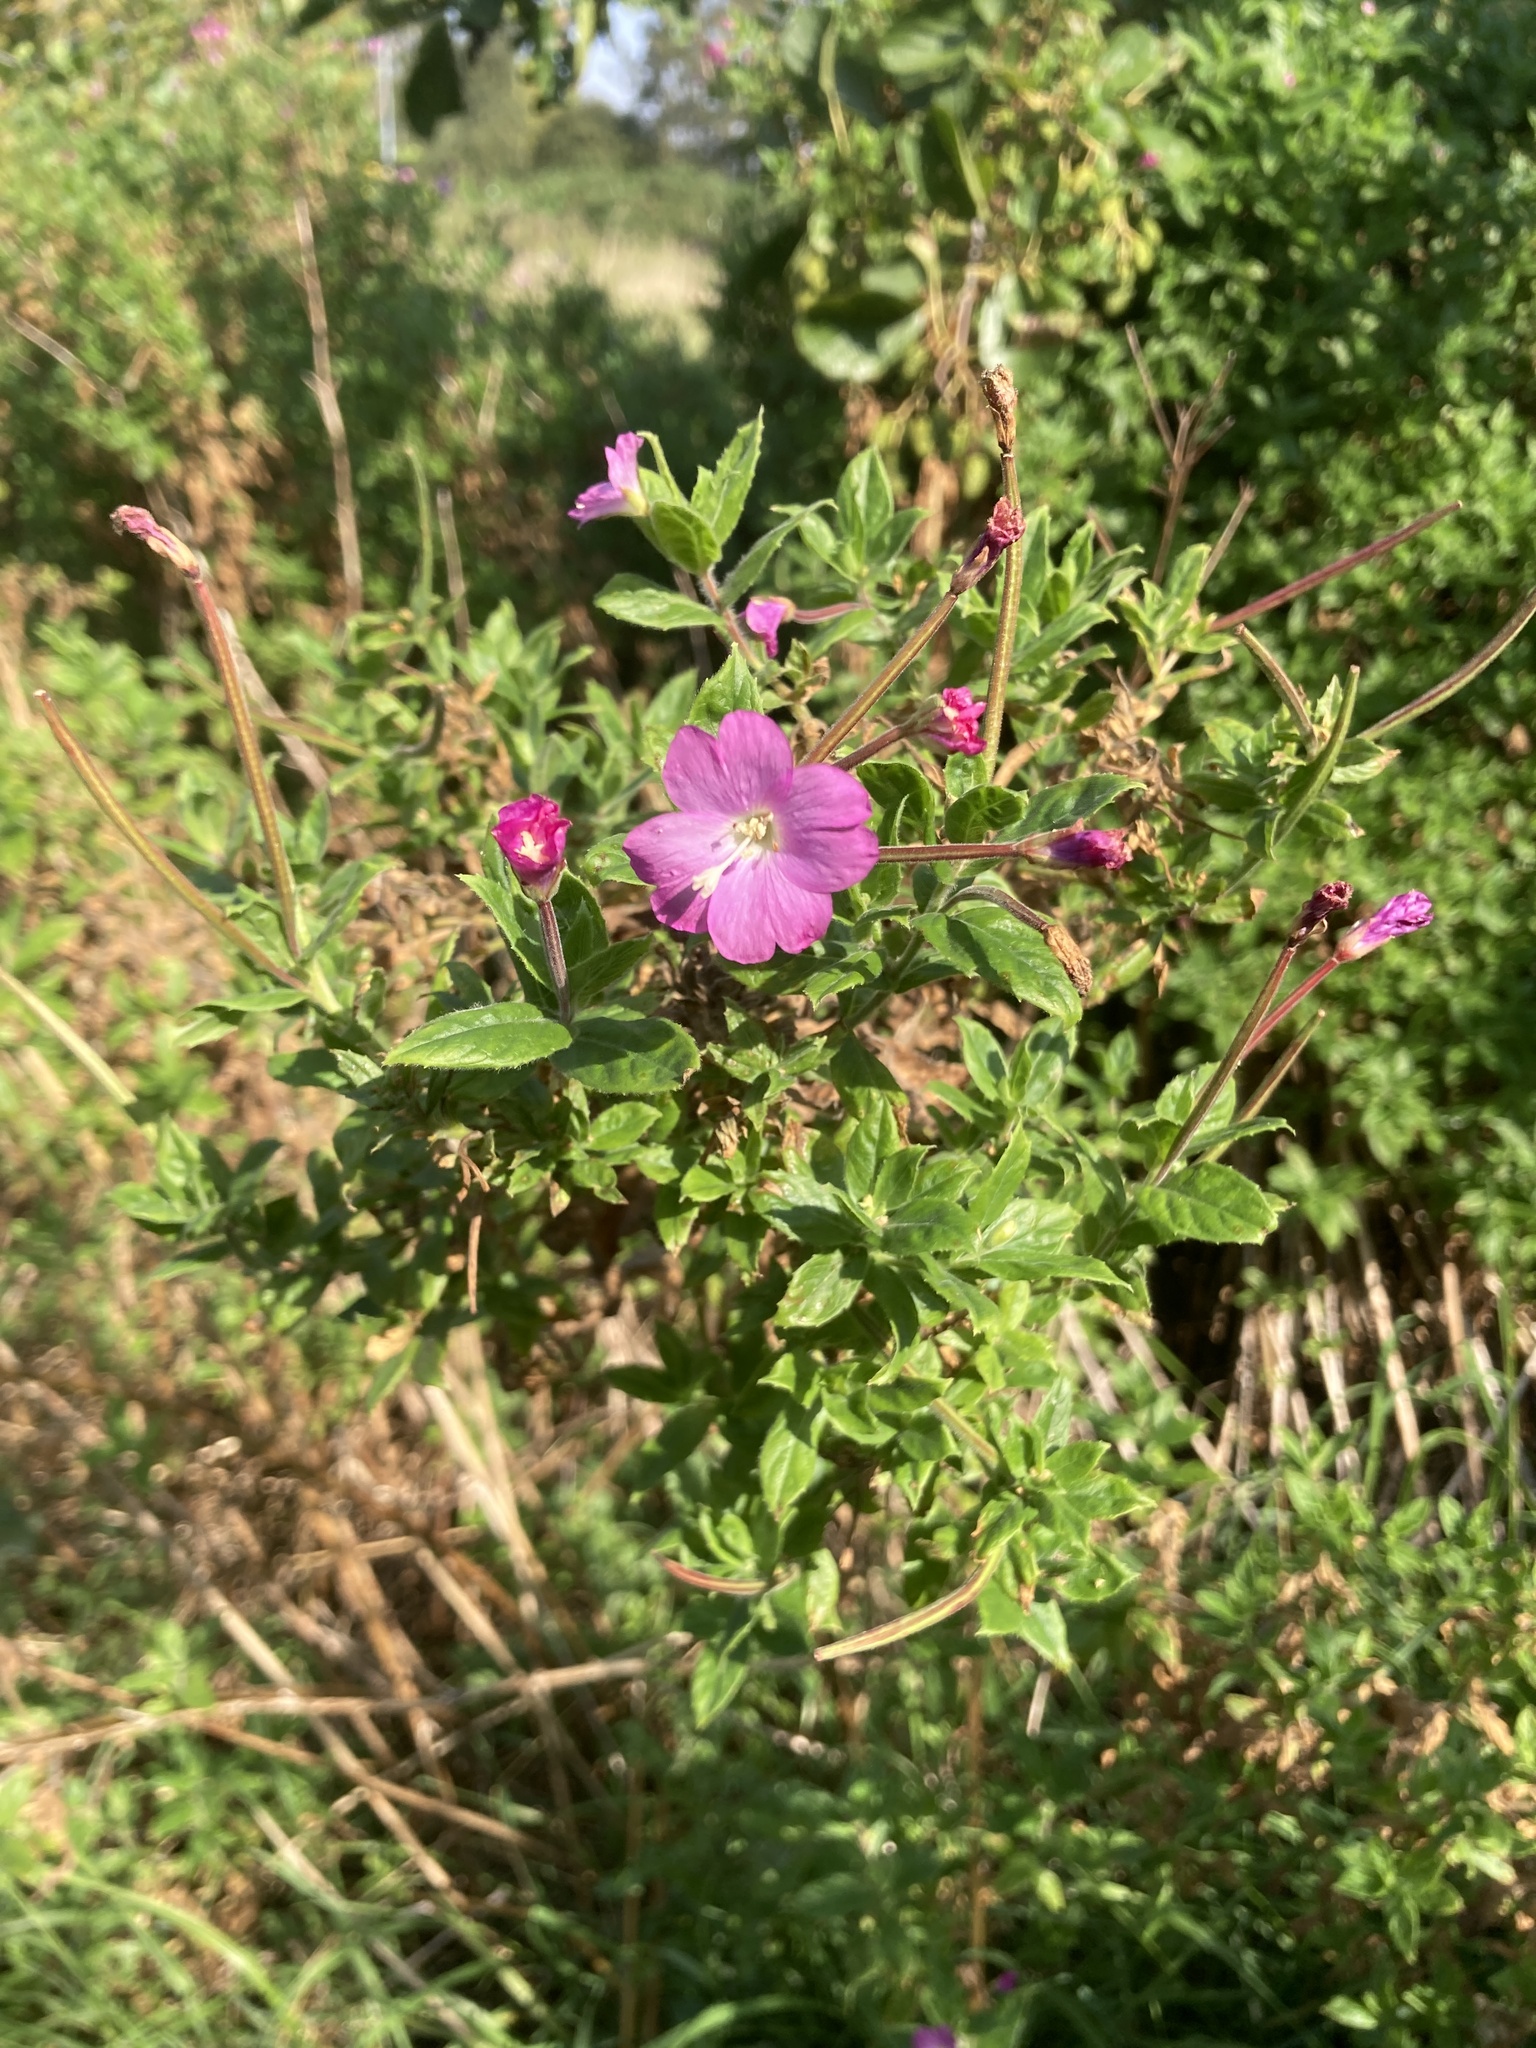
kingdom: Plantae
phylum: Tracheophyta
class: Magnoliopsida
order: Myrtales
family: Onagraceae
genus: Epilobium
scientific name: Epilobium hirsutum
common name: Great willowherb
